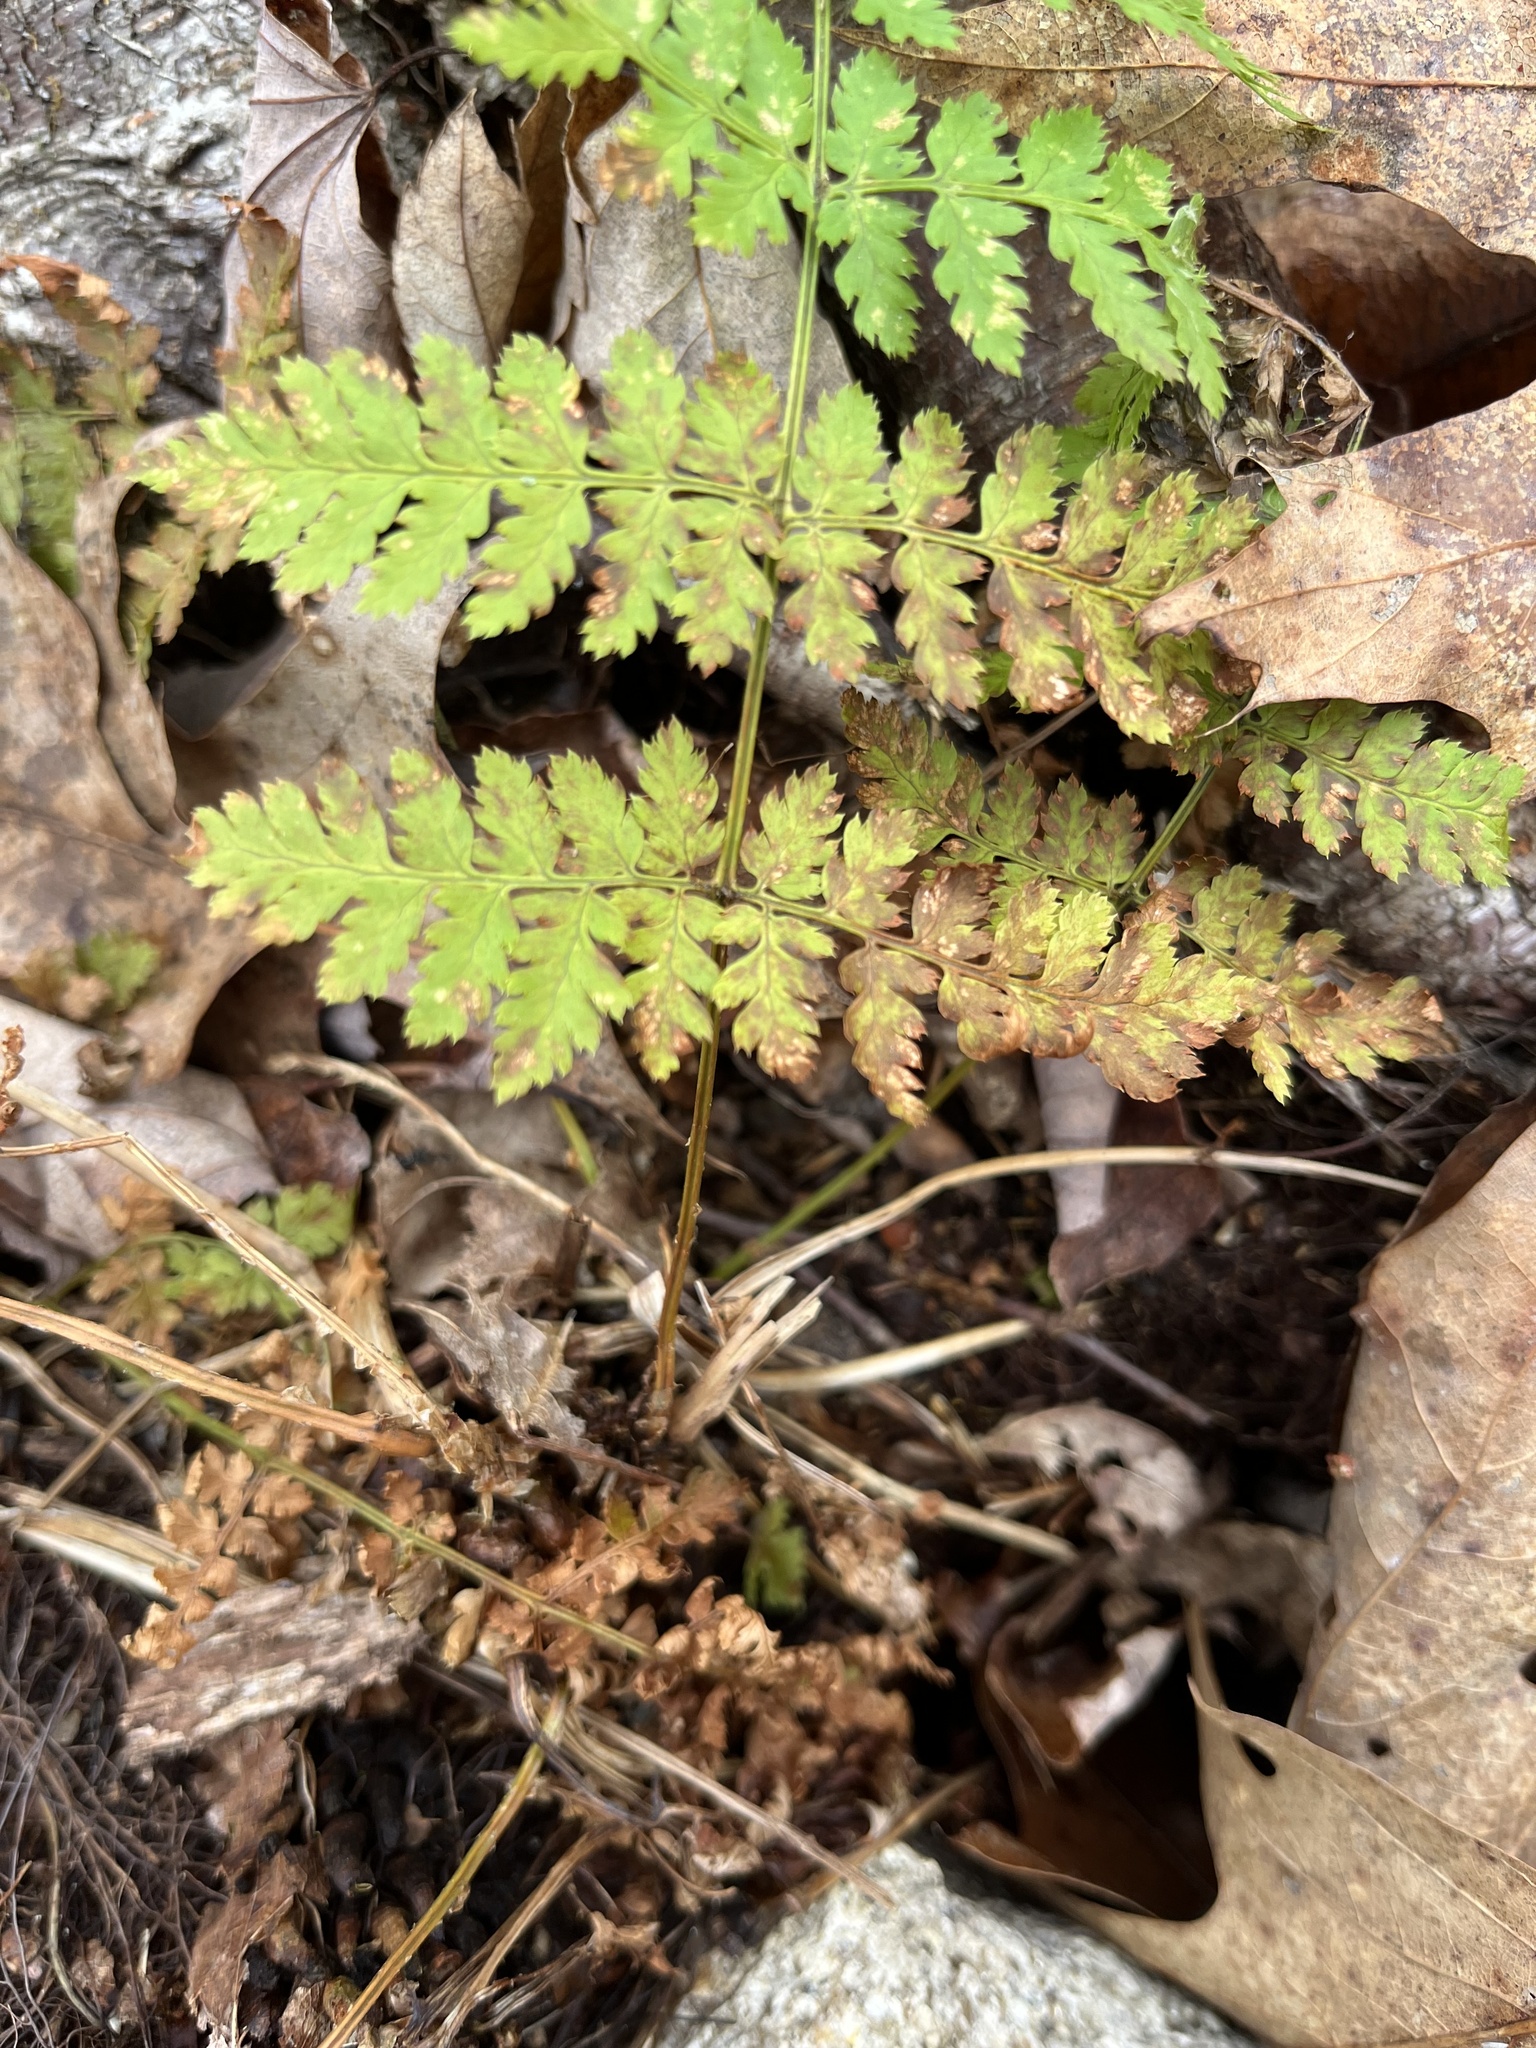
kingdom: Plantae
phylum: Tracheophyta
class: Polypodiopsida
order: Polypodiales
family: Dryopteridaceae
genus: Dryopteris
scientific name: Dryopteris intermedia
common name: Evergreen wood fern
